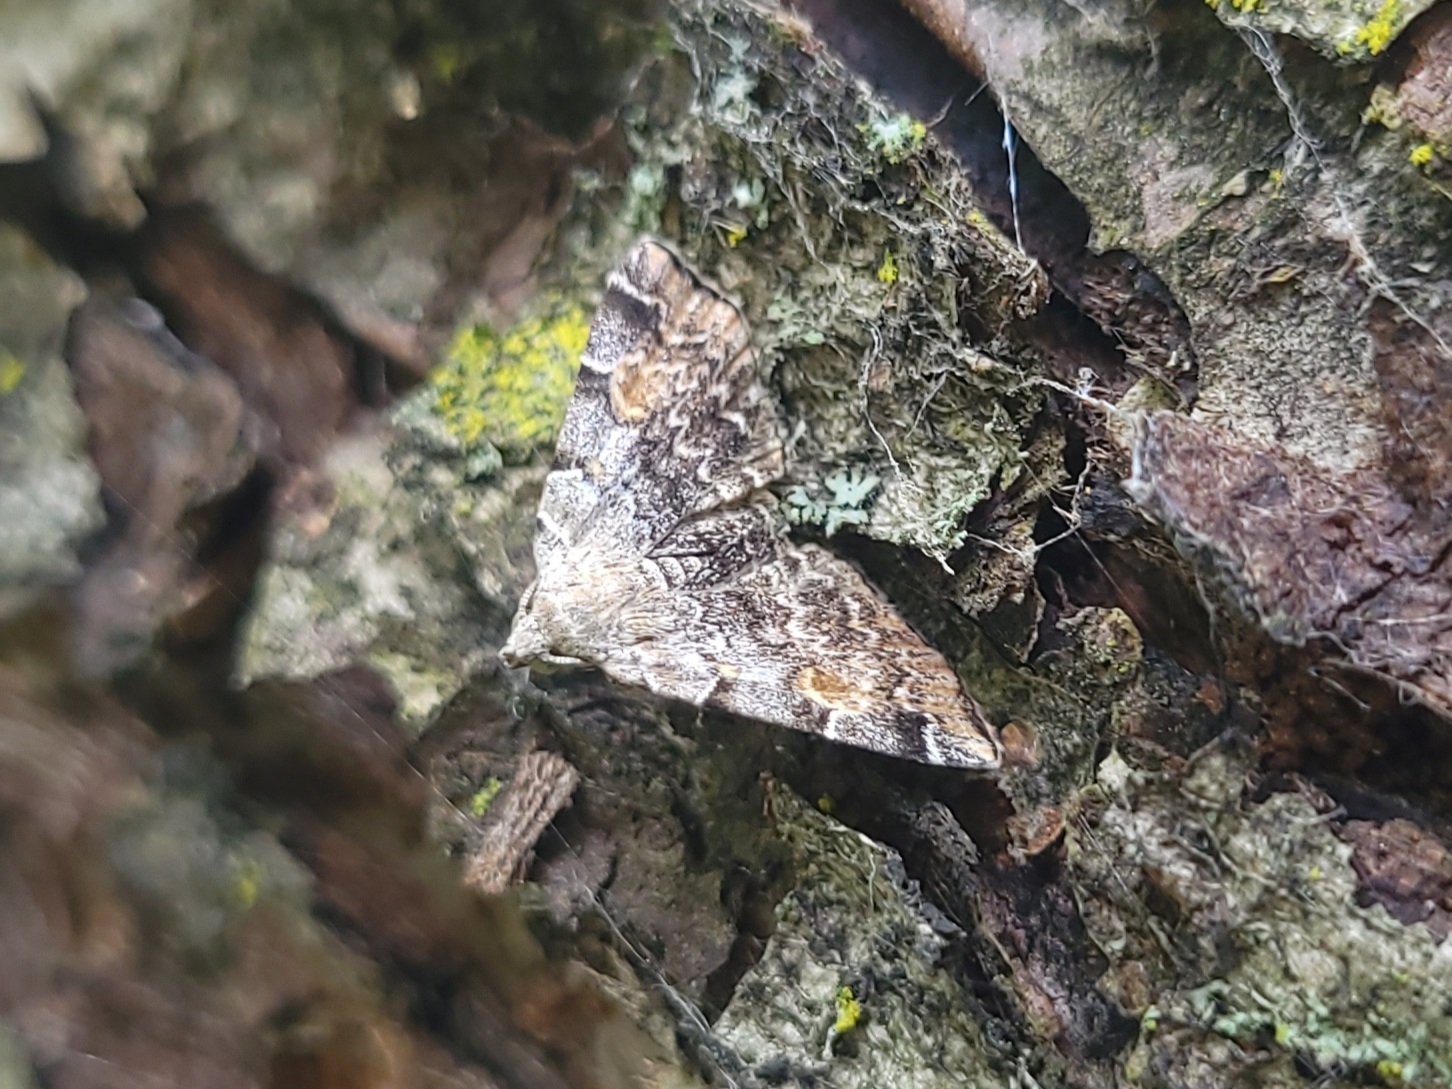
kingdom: Animalia
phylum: Arthropoda
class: Insecta
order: Lepidoptera
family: Erebidae
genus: Idia
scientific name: Idia americalis
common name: American idia moth
